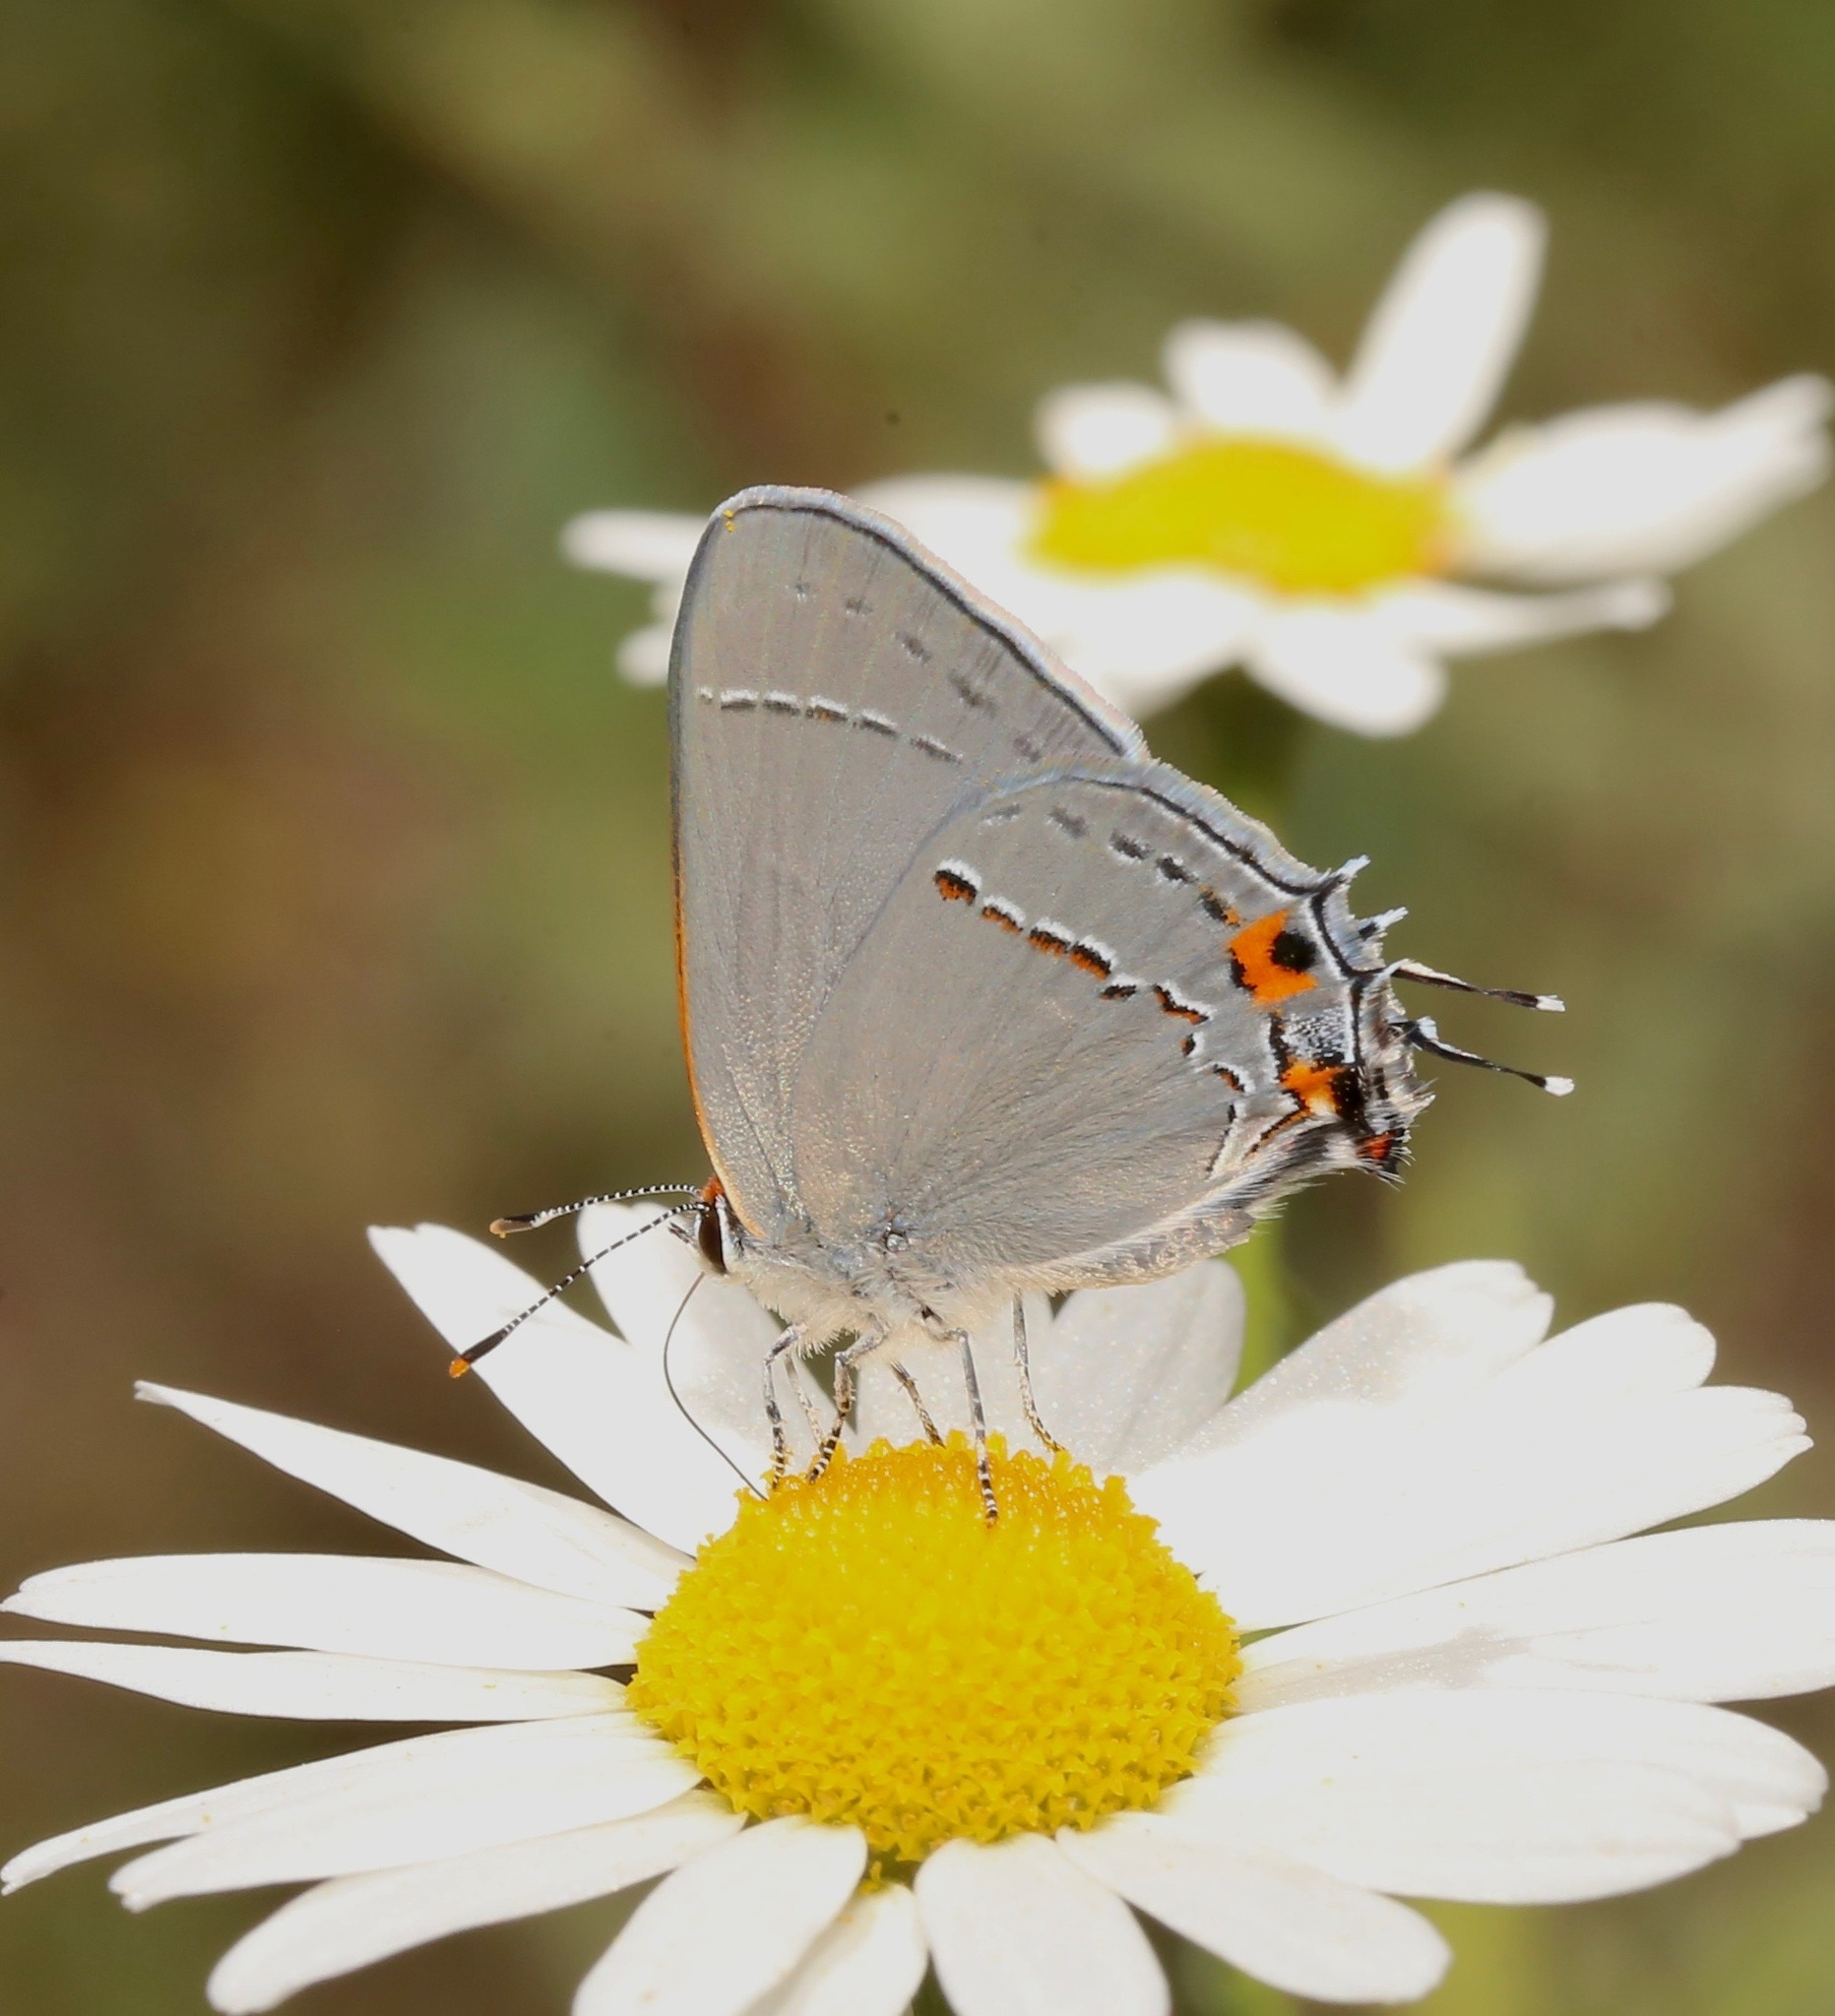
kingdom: Animalia
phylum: Arthropoda
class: Insecta
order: Lepidoptera
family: Lycaenidae
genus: Strymon
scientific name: Strymon melinus
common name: Gray hairstreak
